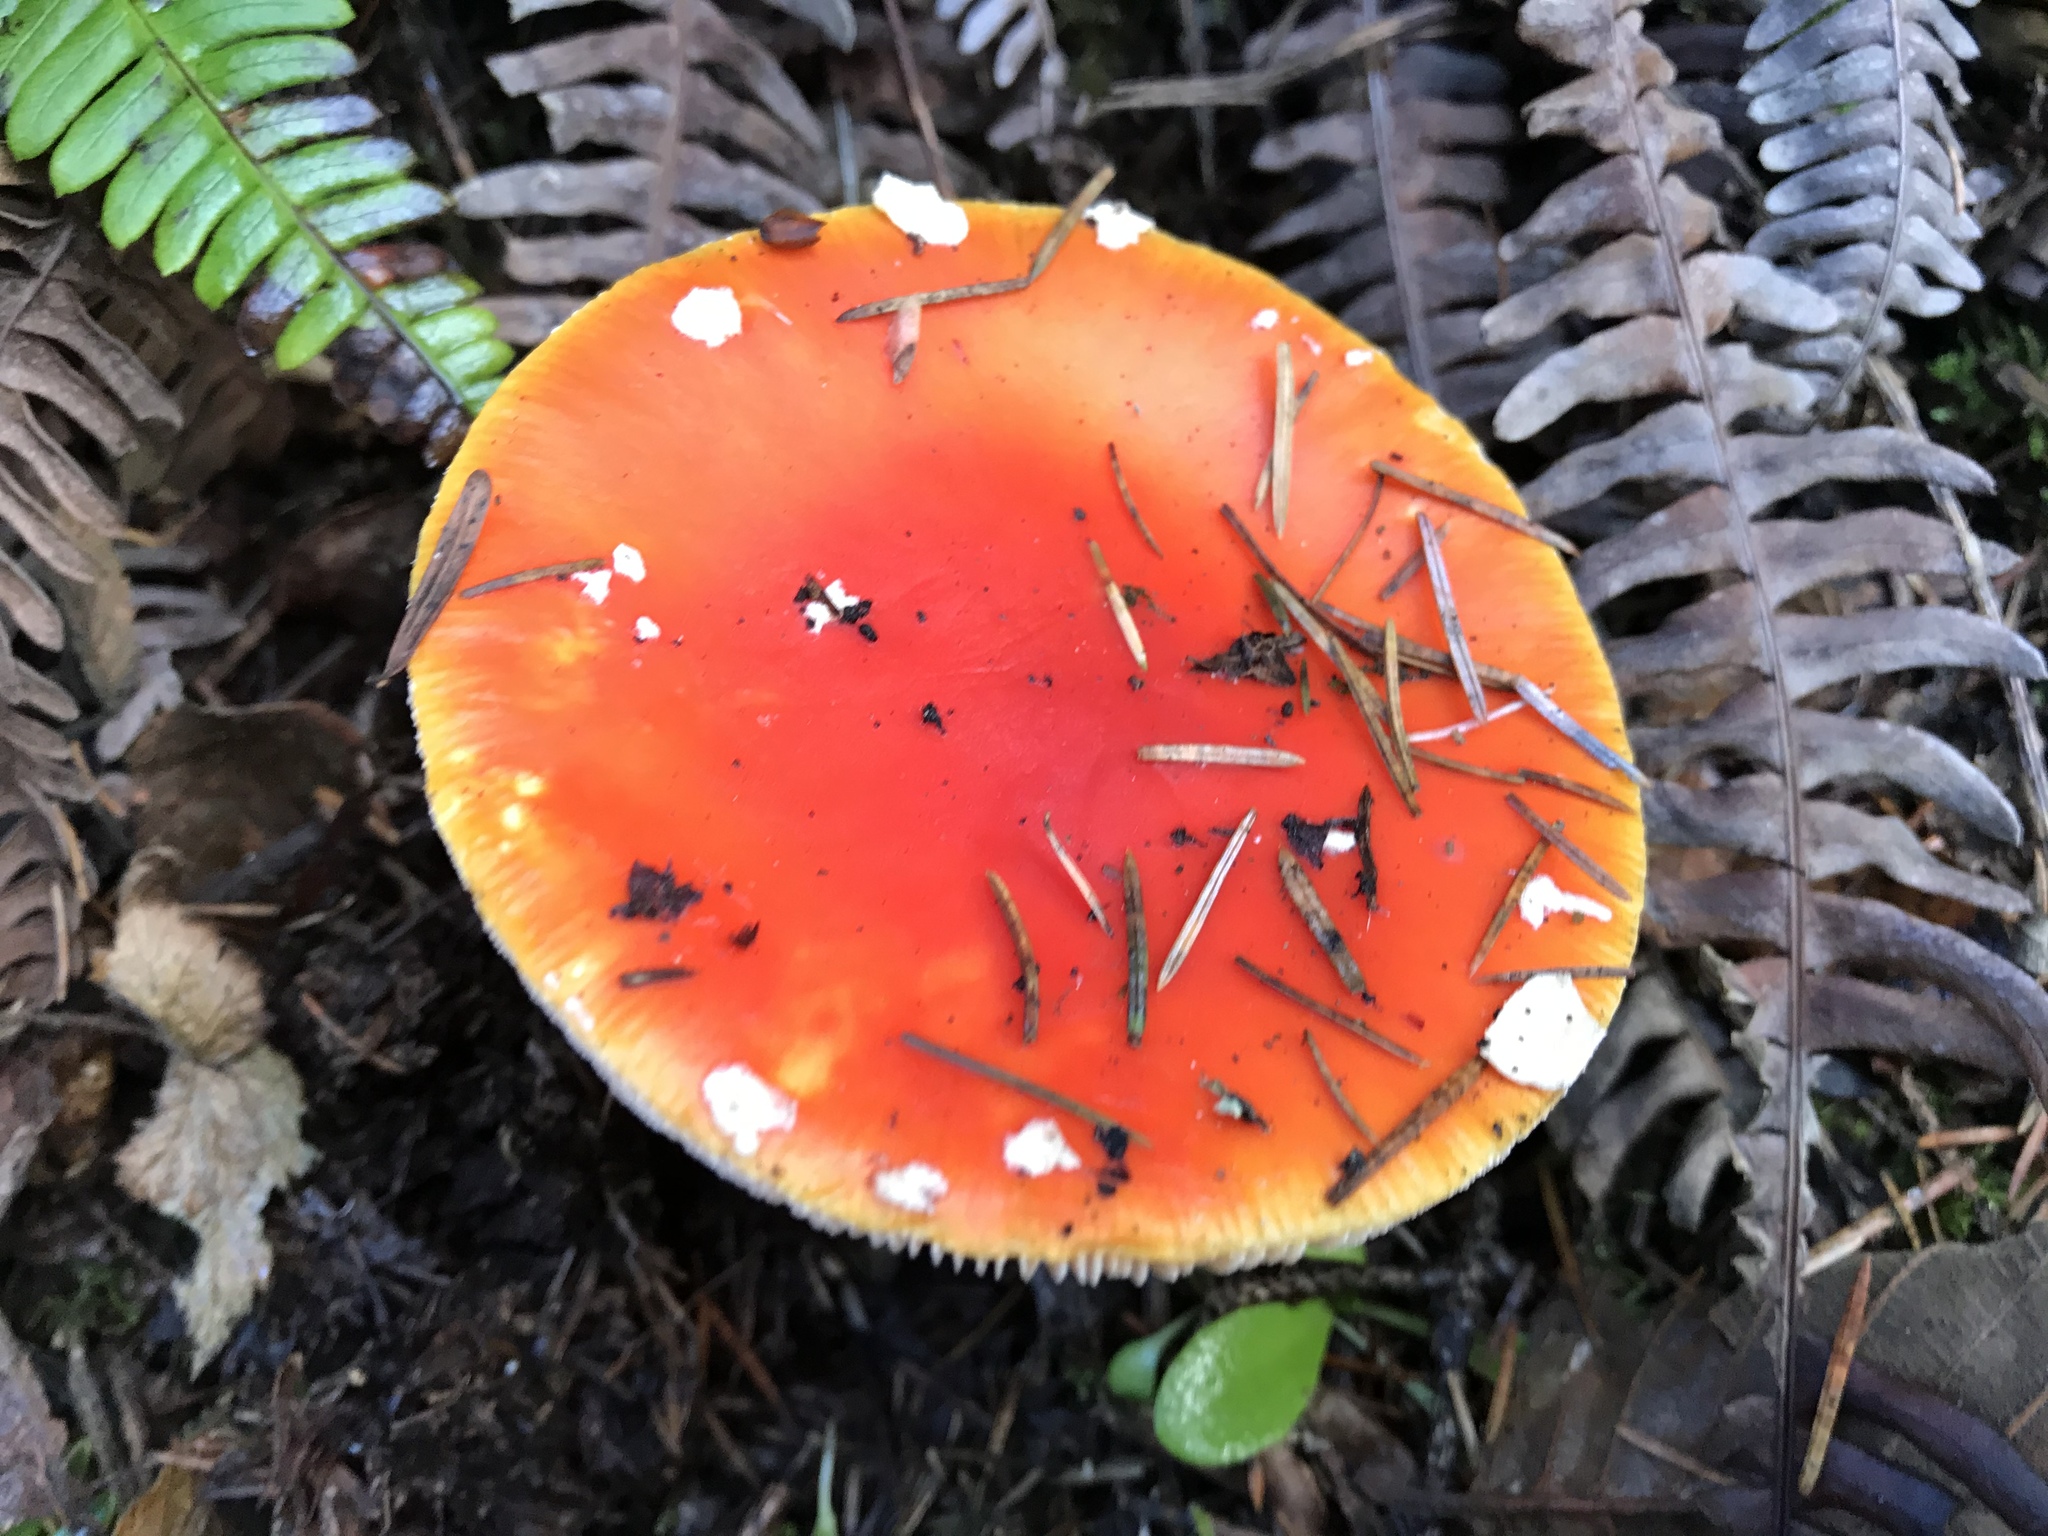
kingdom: Fungi
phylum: Basidiomycota
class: Agaricomycetes
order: Agaricales
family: Amanitaceae
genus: Amanita
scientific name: Amanita muscaria
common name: Fly agaric
